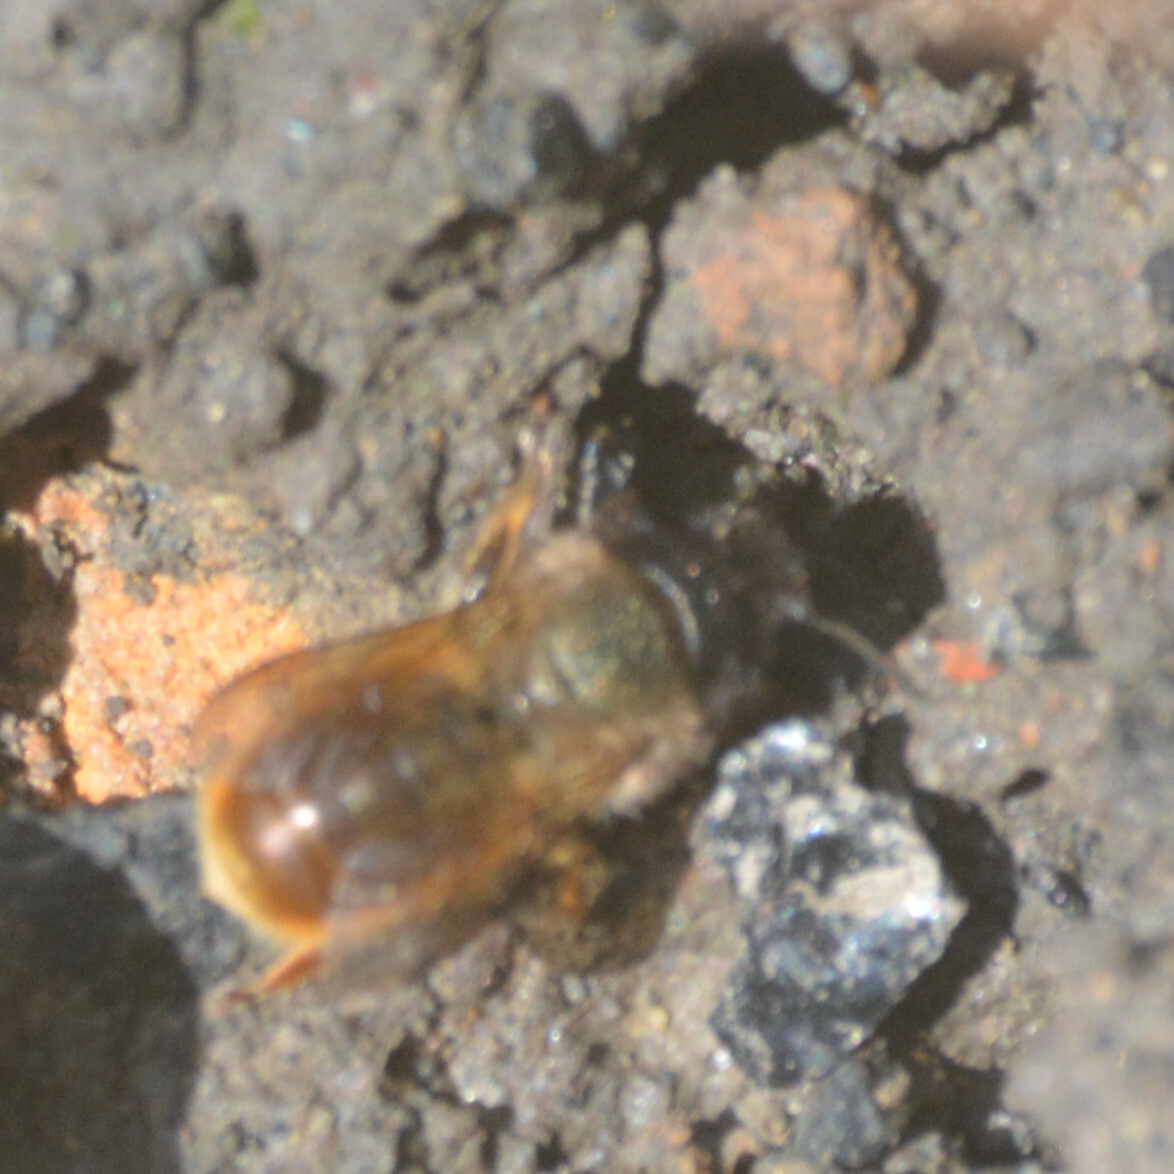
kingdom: Animalia
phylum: Arthropoda
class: Insecta
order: Hymenoptera
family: Megachilidae
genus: Osmia
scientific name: Osmia bicornis
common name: Red mason bee
